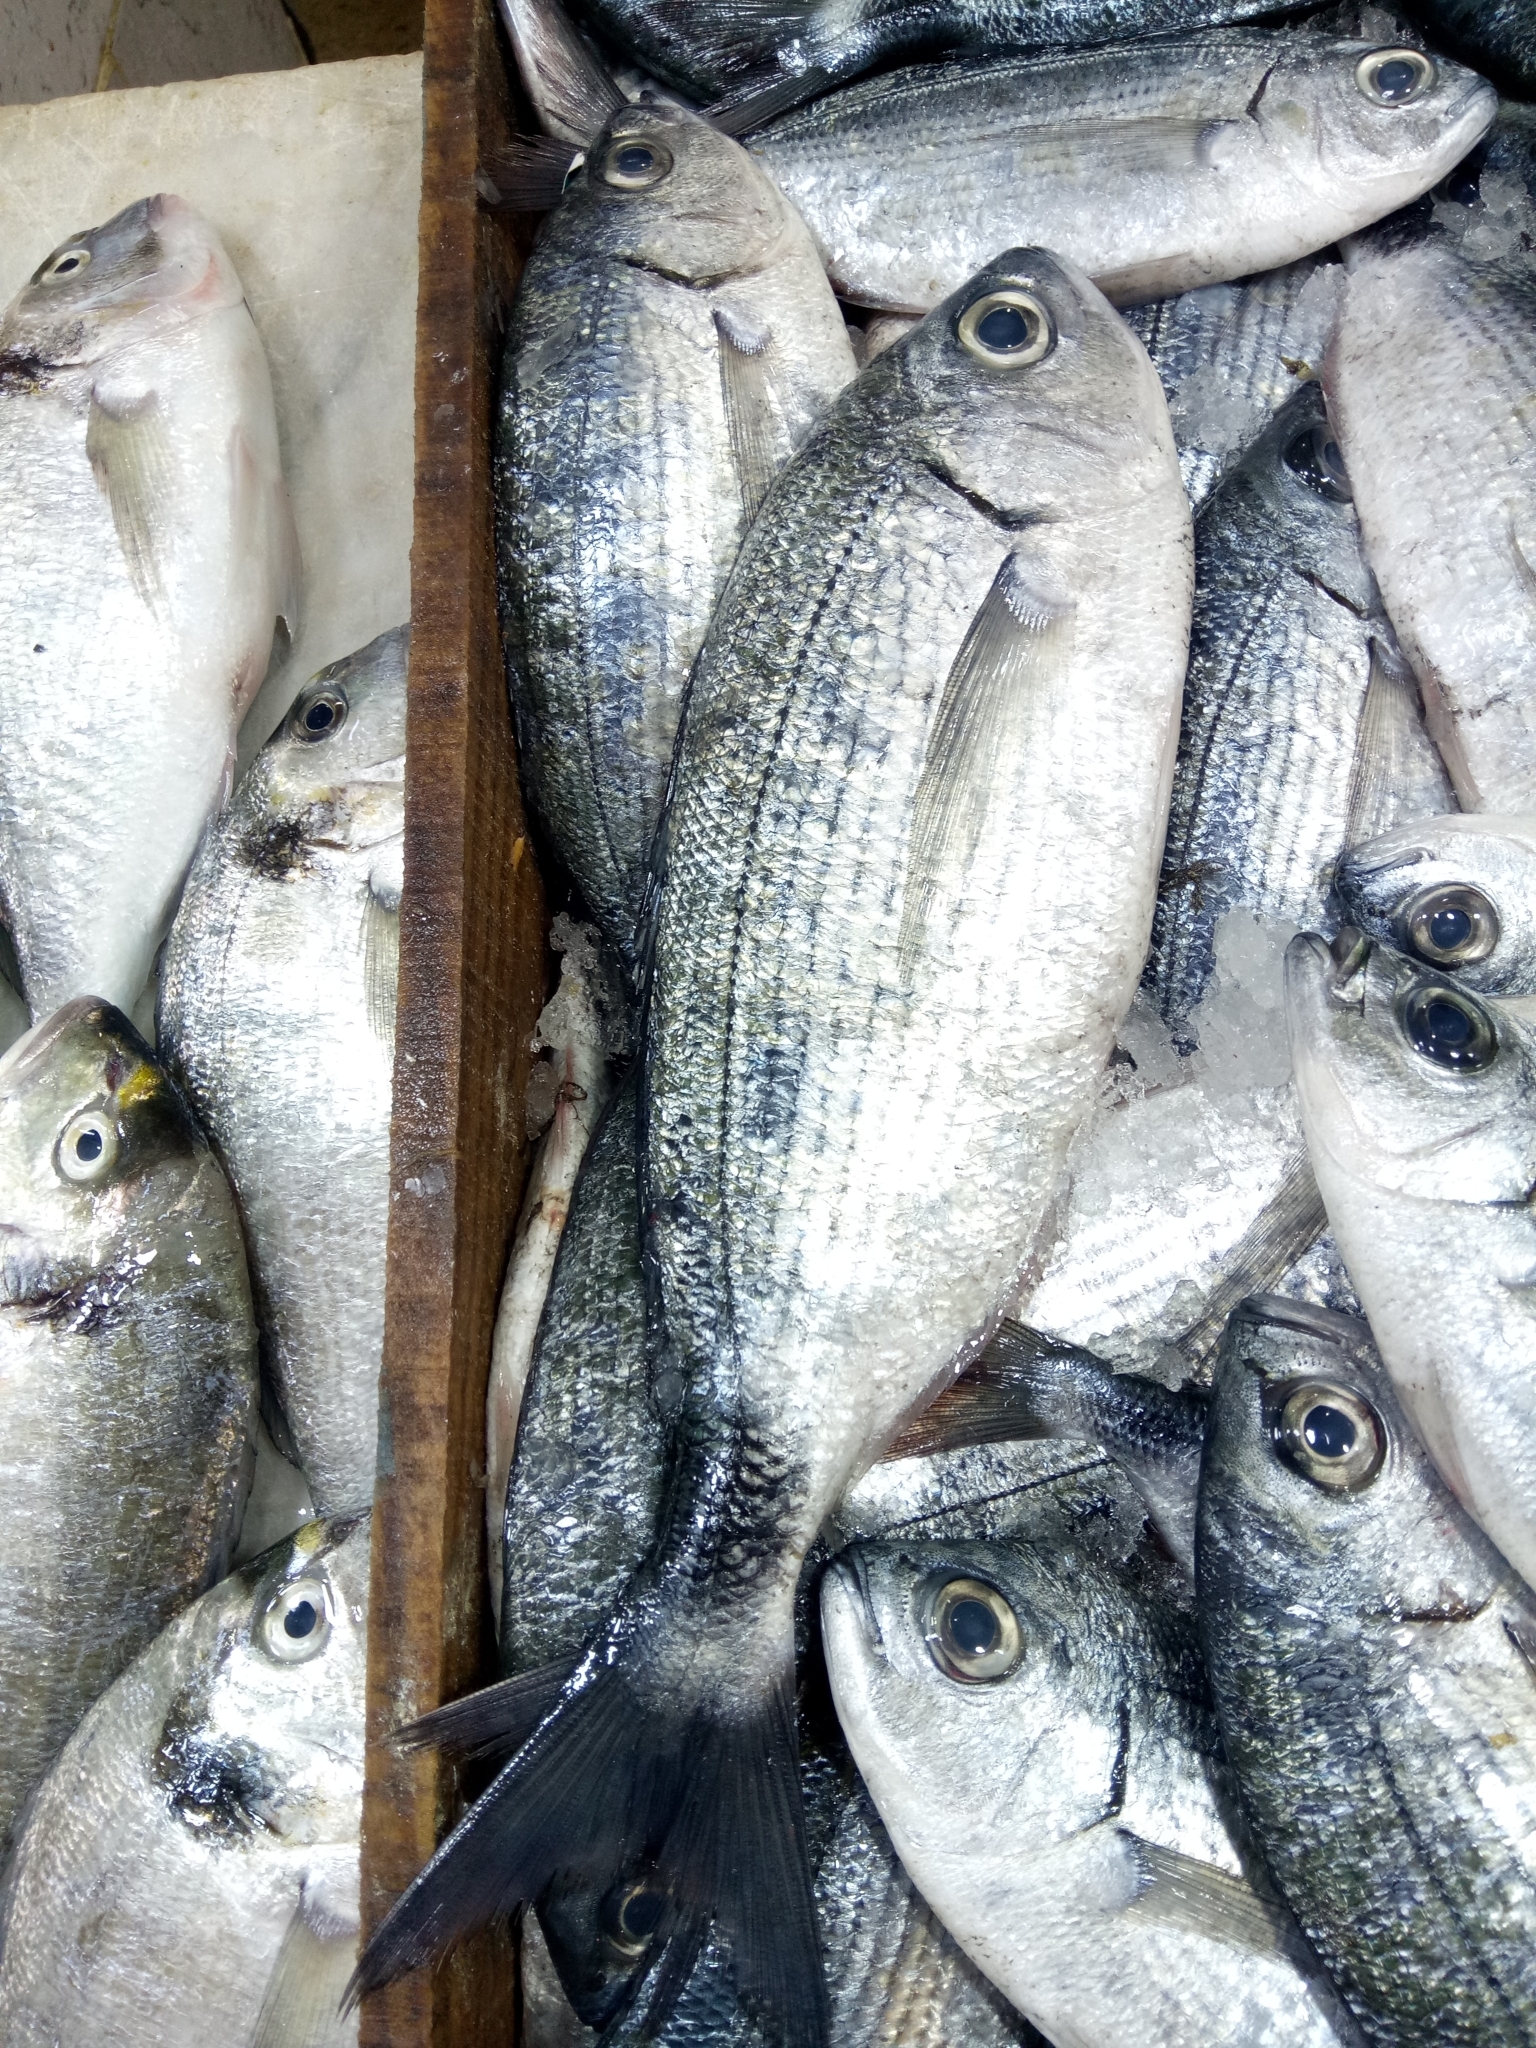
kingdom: Animalia
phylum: Chordata
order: Perciformes
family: Sparidae
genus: Oblada
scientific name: Oblada melanura
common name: Saddled seabream
